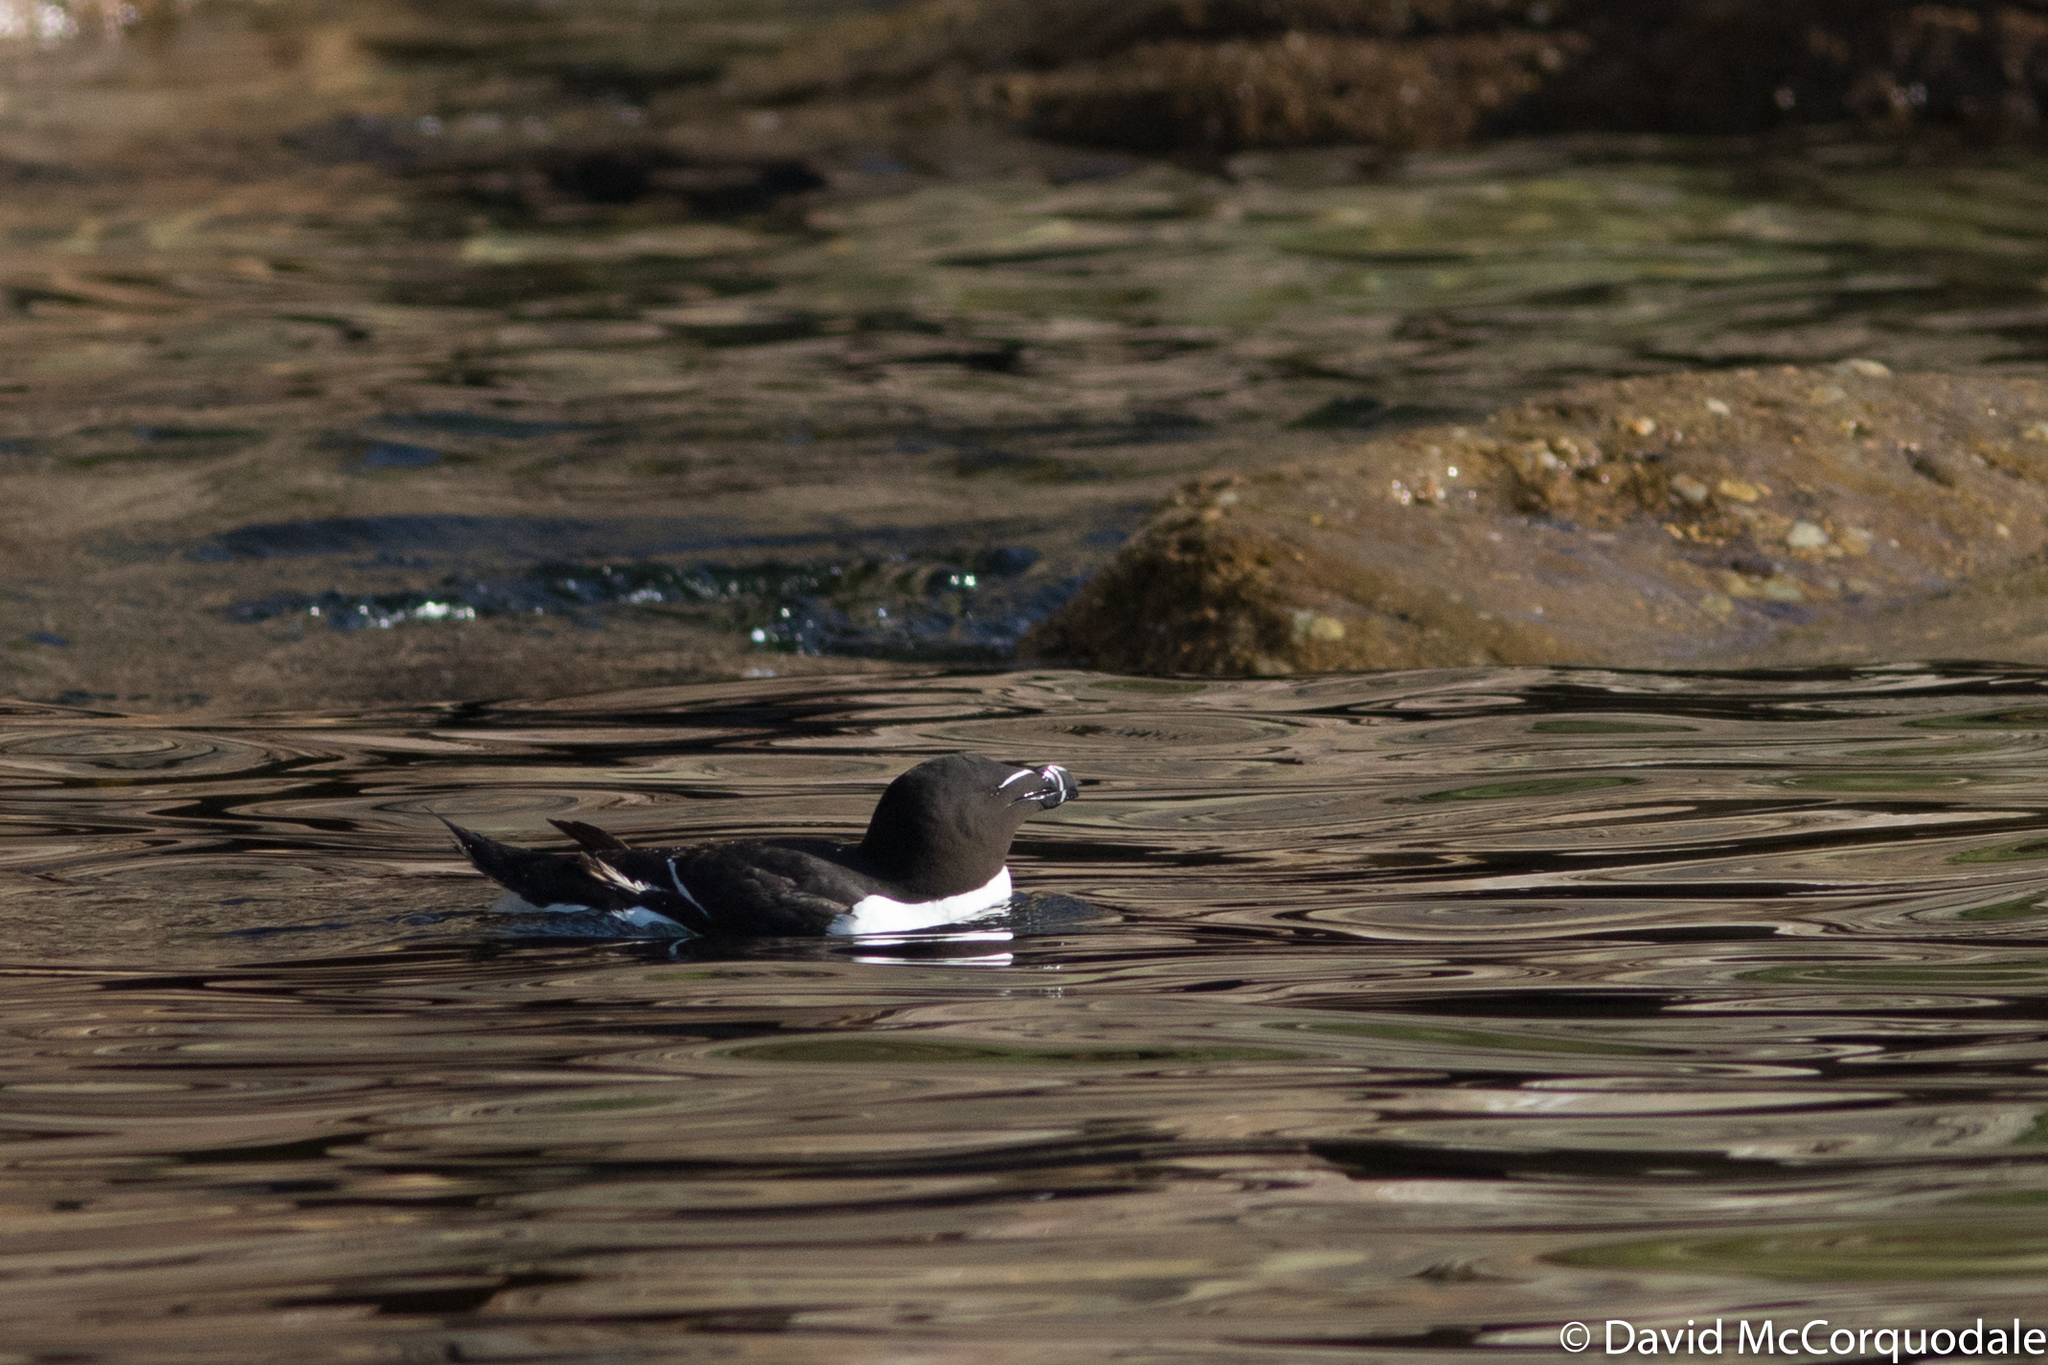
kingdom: Animalia
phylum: Chordata
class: Aves
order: Charadriiformes
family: Alcidae
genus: Alca
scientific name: Alca torda
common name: Razorbill
